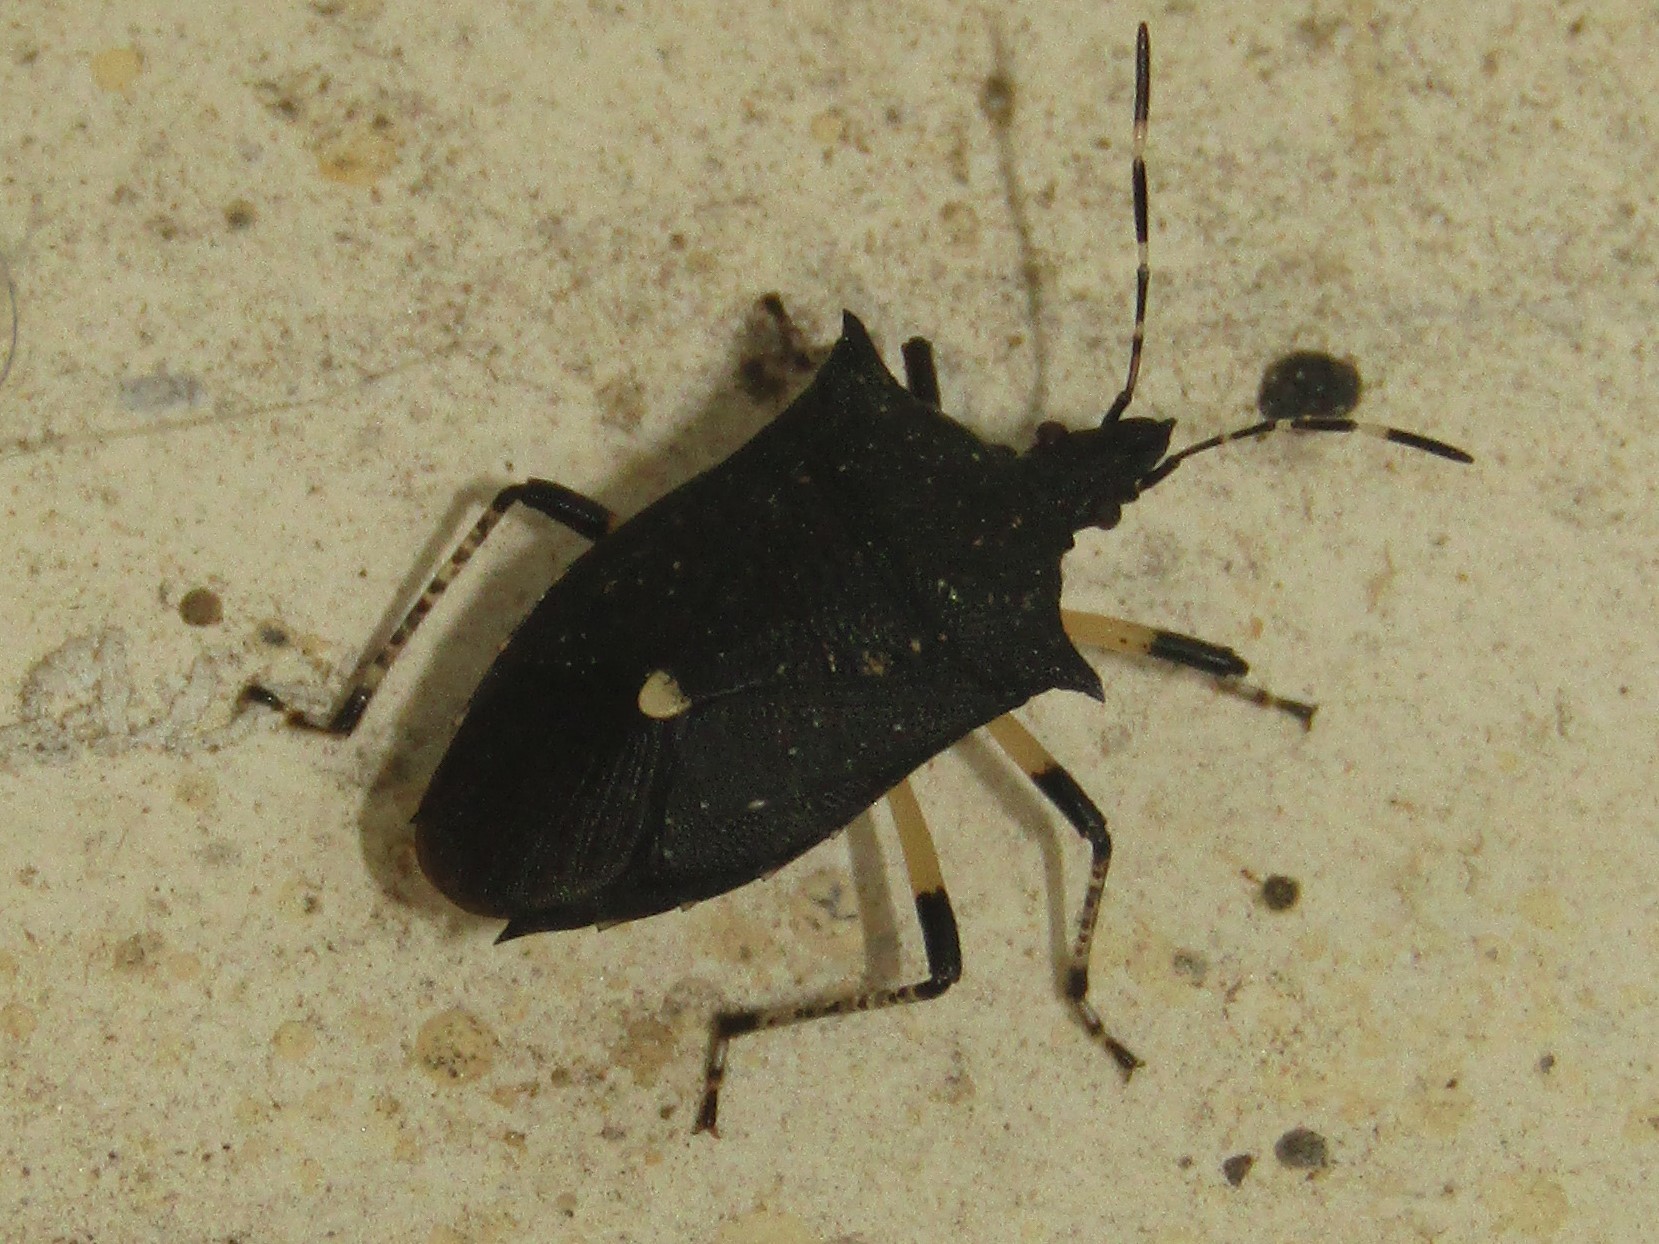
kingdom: Animalia
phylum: Arthropoda
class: Insecta
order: Hemiptera
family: Pentatomidae
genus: Proxys
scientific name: Proxys punctulatus
